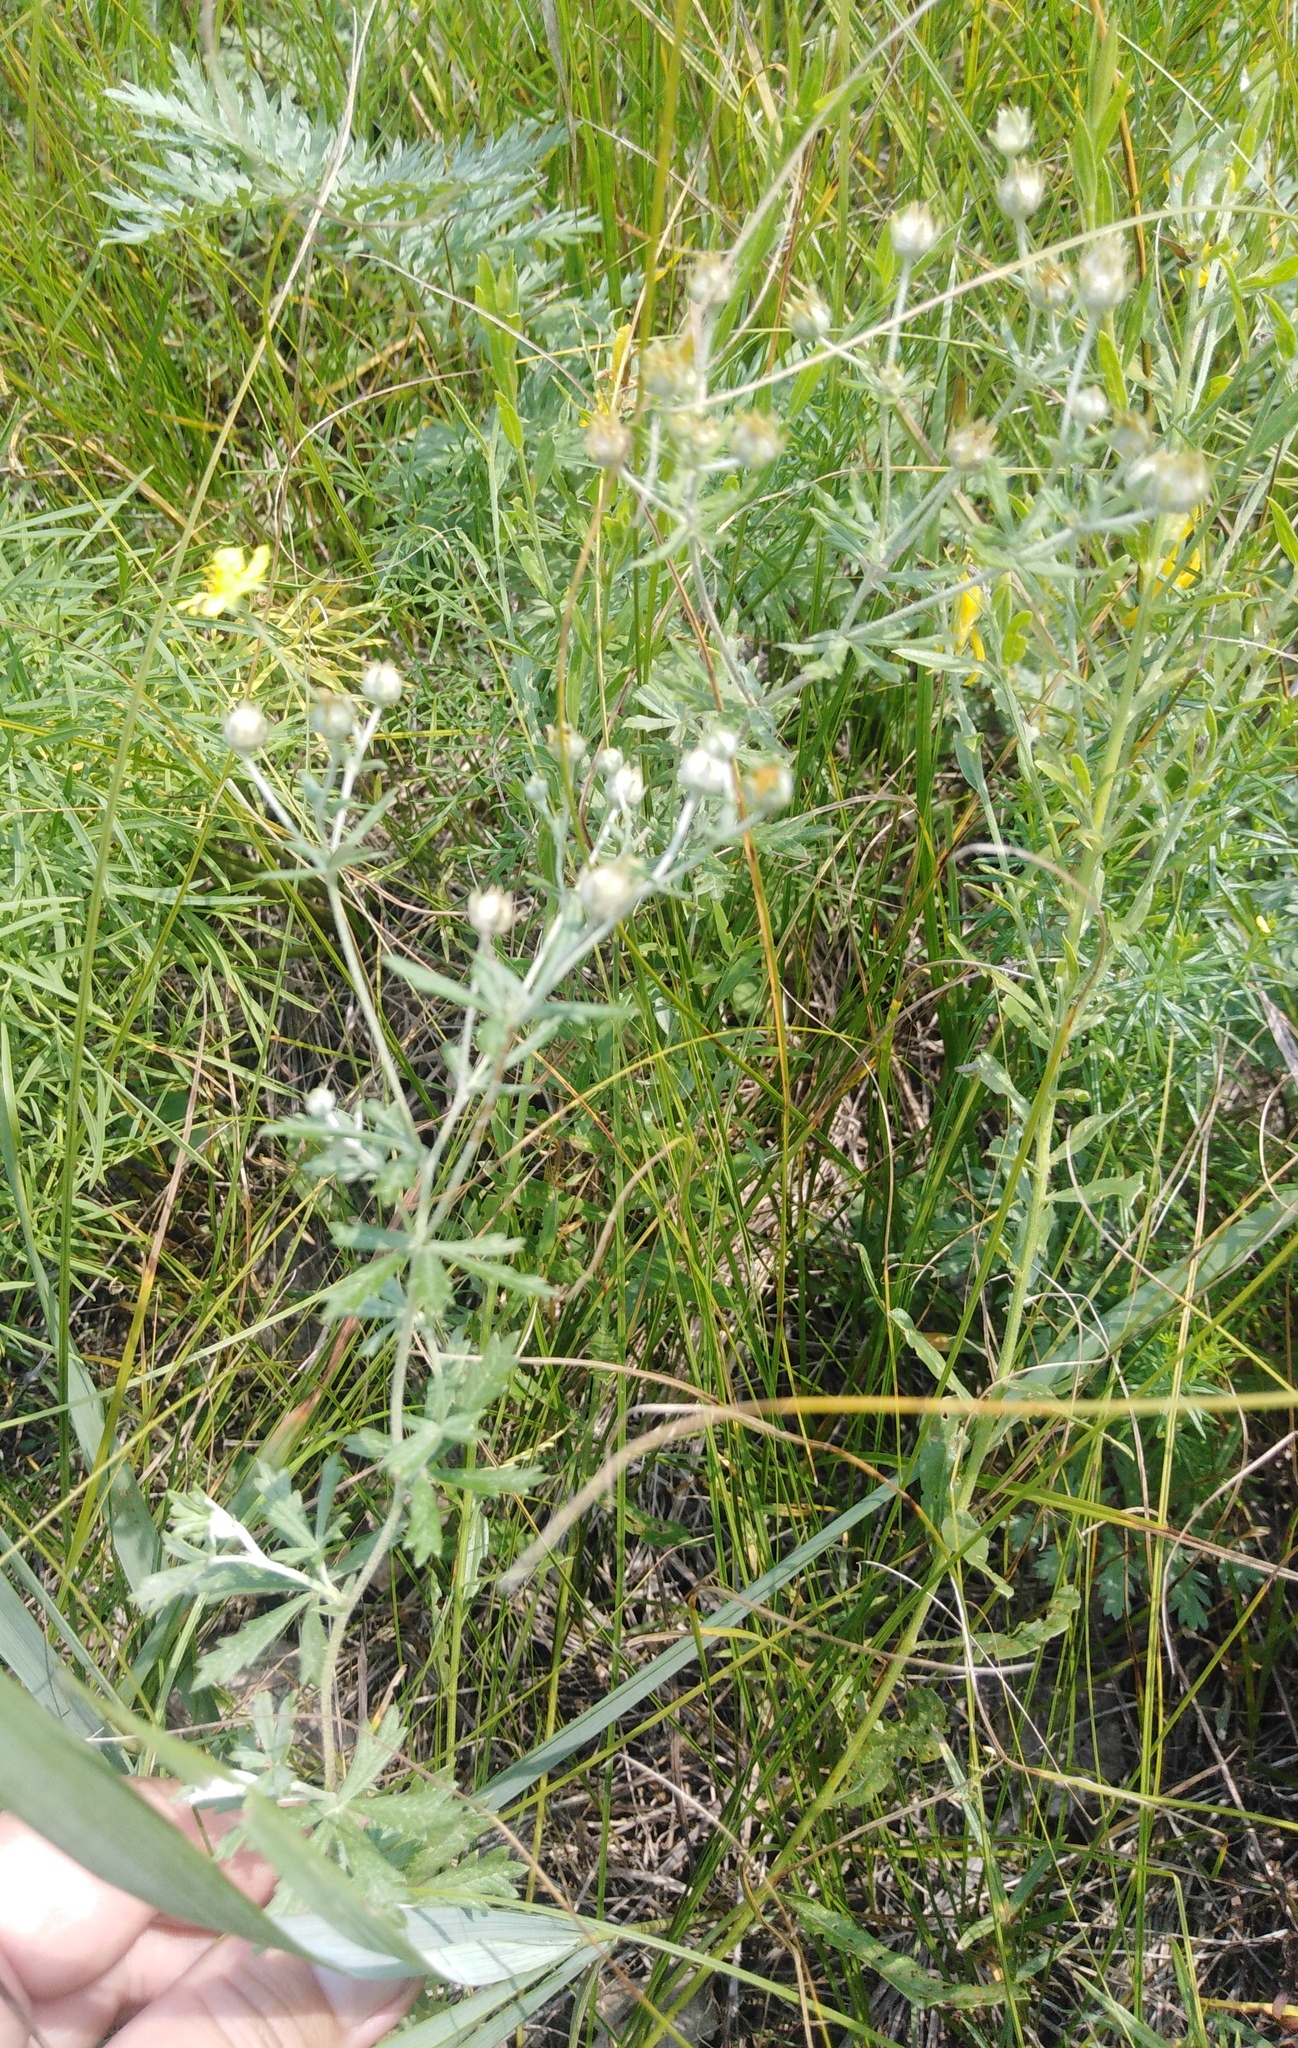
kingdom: Plantae
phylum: Tracheophyta
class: Magnoliopsida
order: Rosales
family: Rosaceae
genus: Potentilla
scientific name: Potentilla argentea
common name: Hoary cinquefoil
